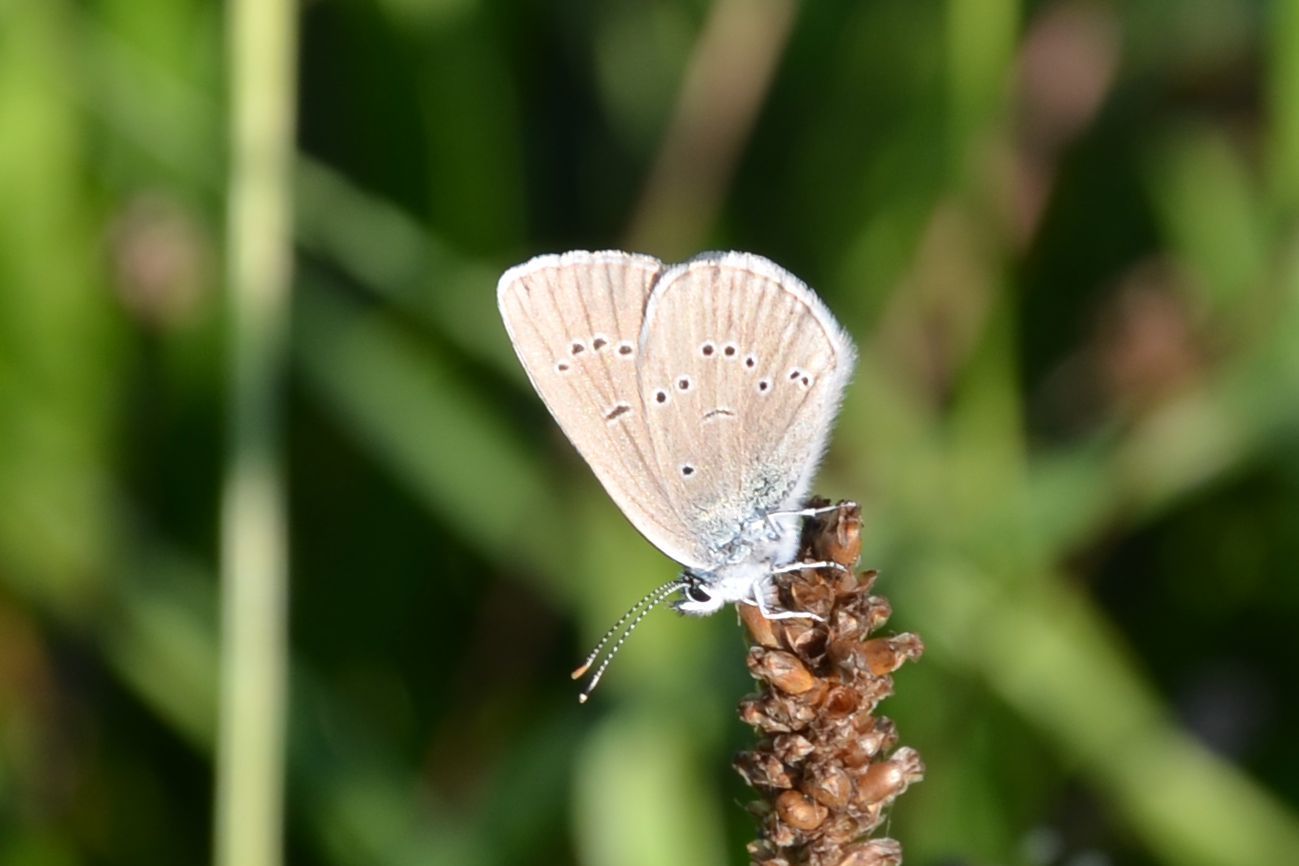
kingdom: Animalia
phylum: Arthropoda
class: Insecta
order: Lepidoptera
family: Lycaenidae
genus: Cyaniris
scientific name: Cyaniris semiargus
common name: Mazarine blue
